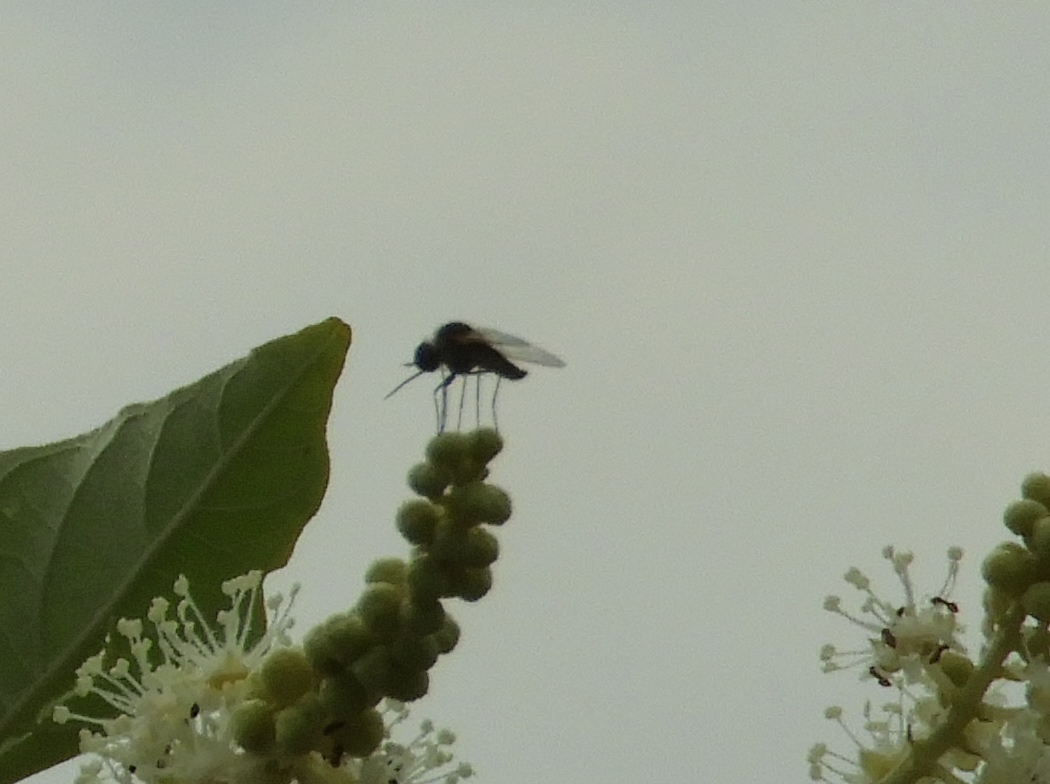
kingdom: Animalia
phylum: Arthropoda
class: Insecta
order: Diptera
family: Bombyliidae
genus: Geron
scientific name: Geron
